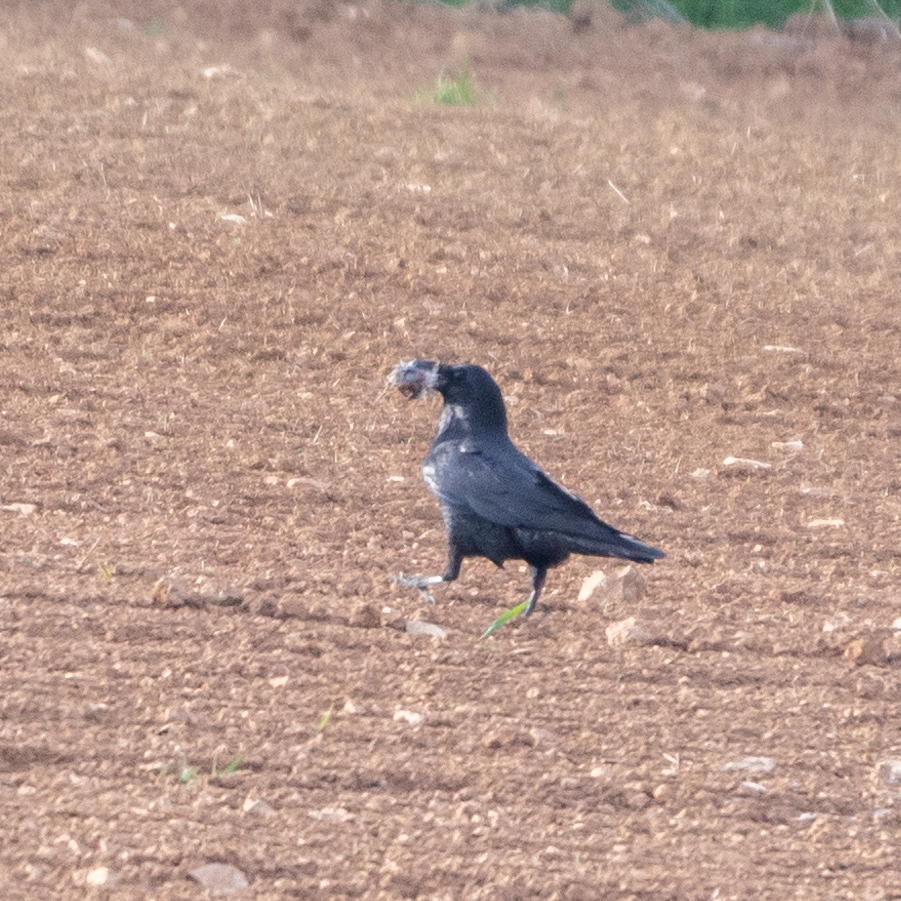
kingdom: Animalia
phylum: Chordata
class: Aves
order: Passeriformes
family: Corvidae
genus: Corvus
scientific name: Corvus corone
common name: Carrion crow
